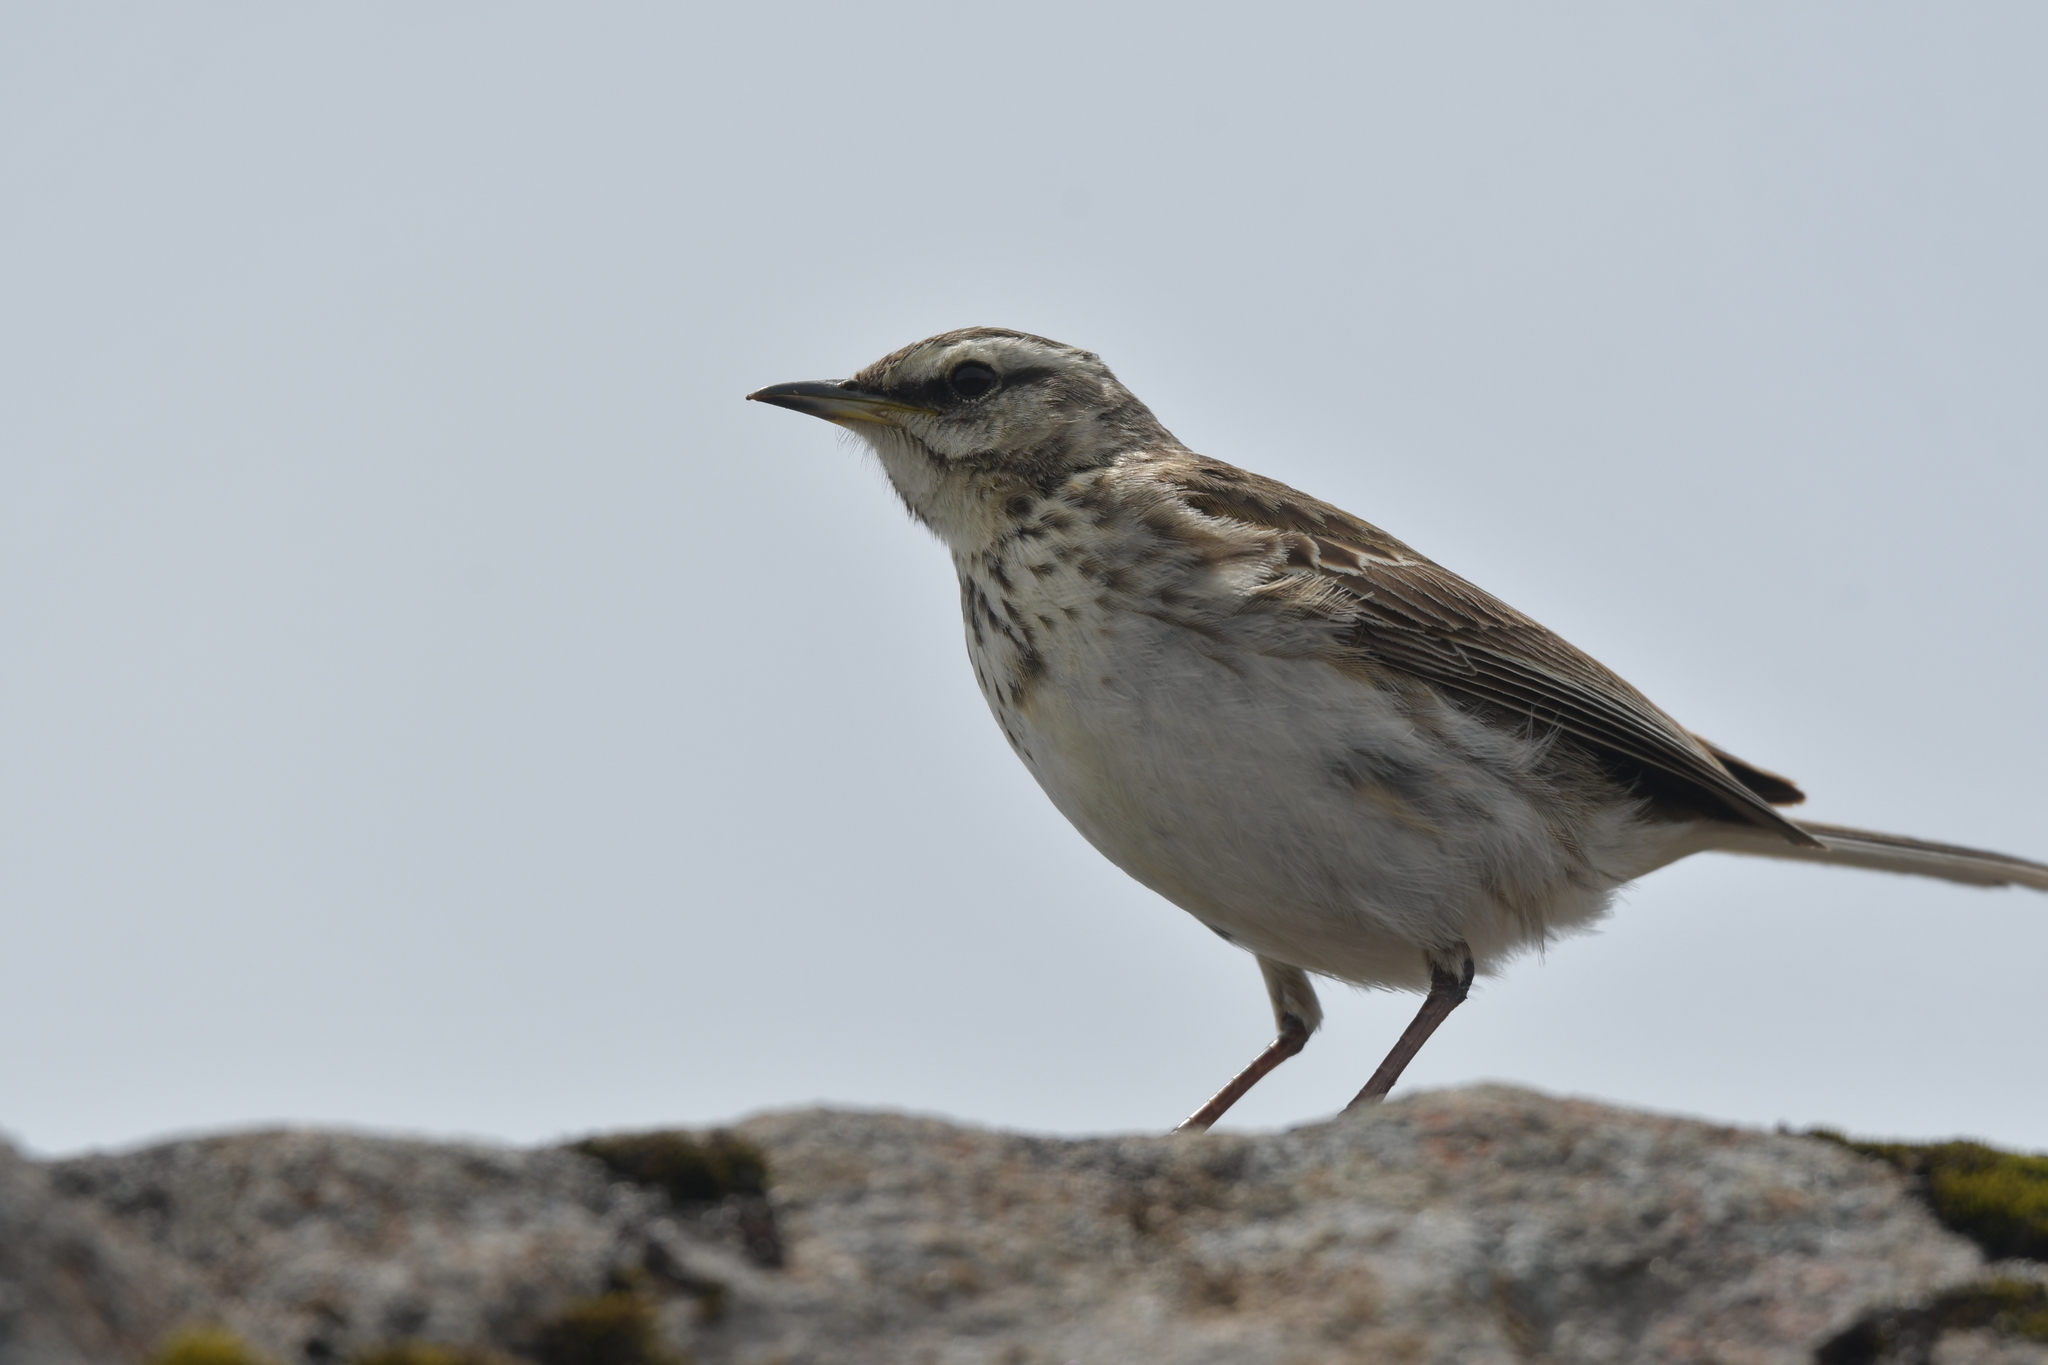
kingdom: Animalia
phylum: Chordata
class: Aves
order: Passeriformes
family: Motacillidae
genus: Anthus
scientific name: Anthus novaeseelandiae
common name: New zealand pipit
